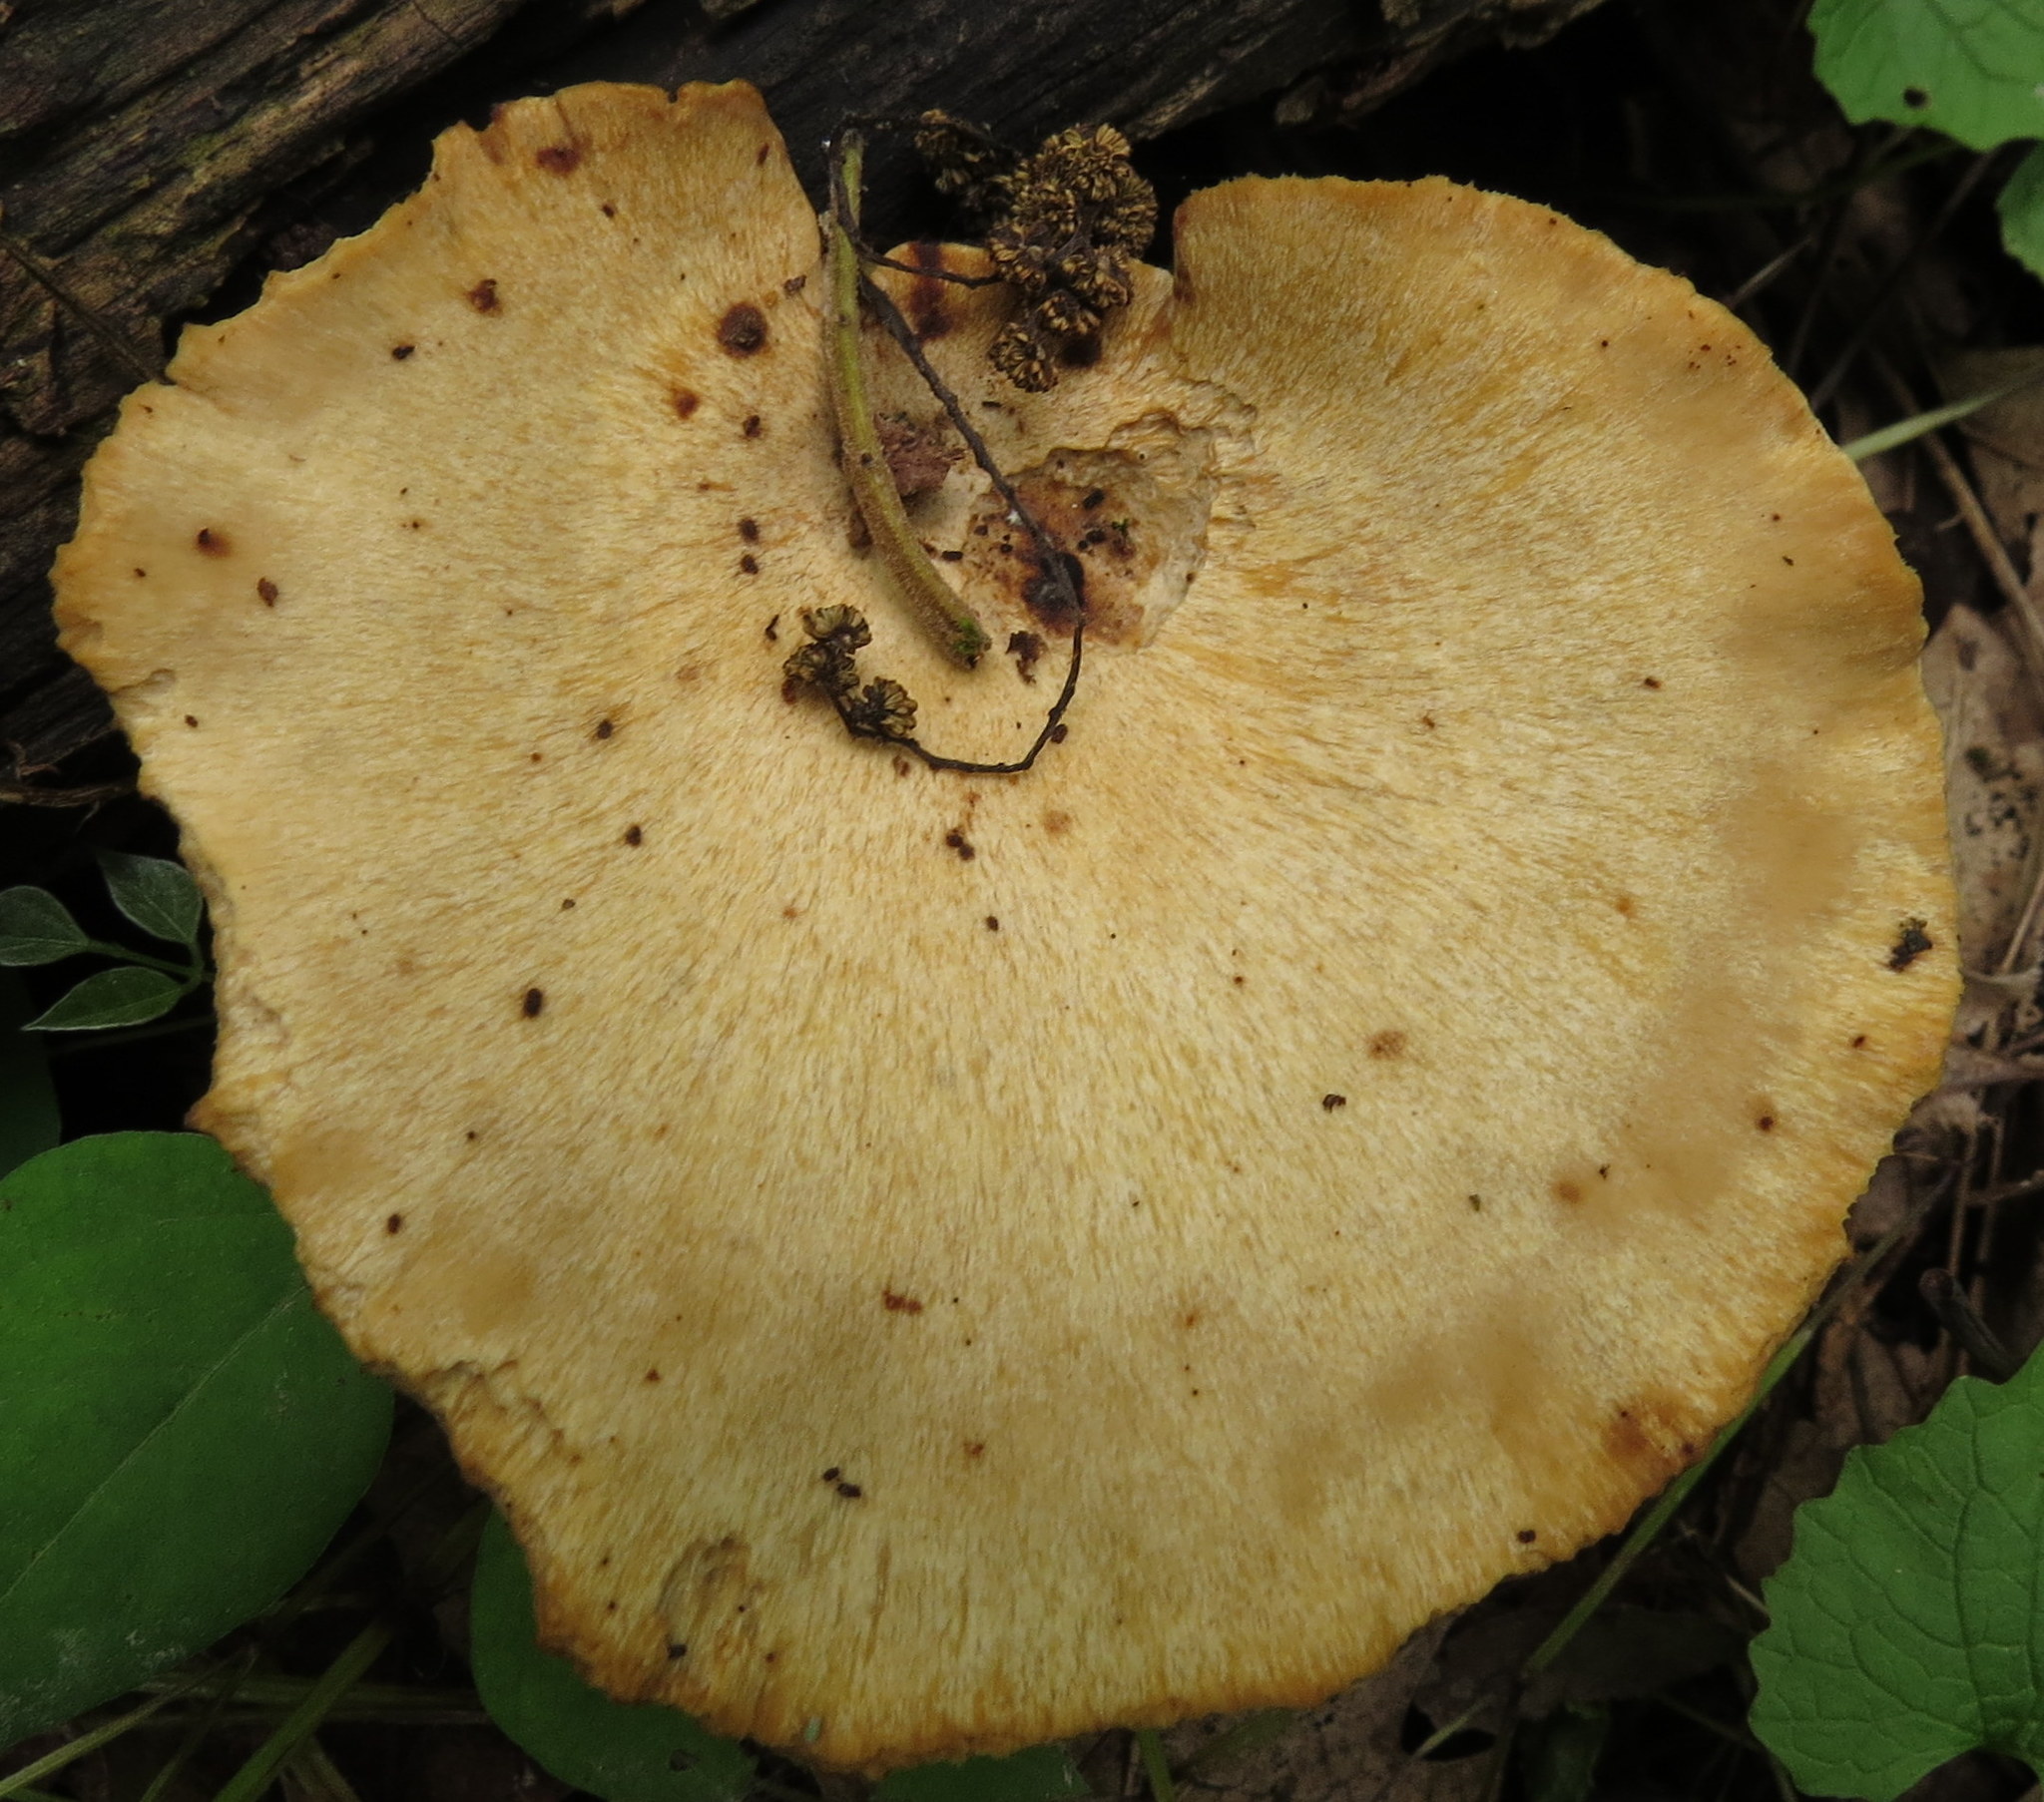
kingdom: Fungi
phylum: Basidiomycota
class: Agaricomycetes
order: Polyporales
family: Polyporaceae
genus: Cerioporus
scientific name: Cerioporus varius
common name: Elegant polypore
